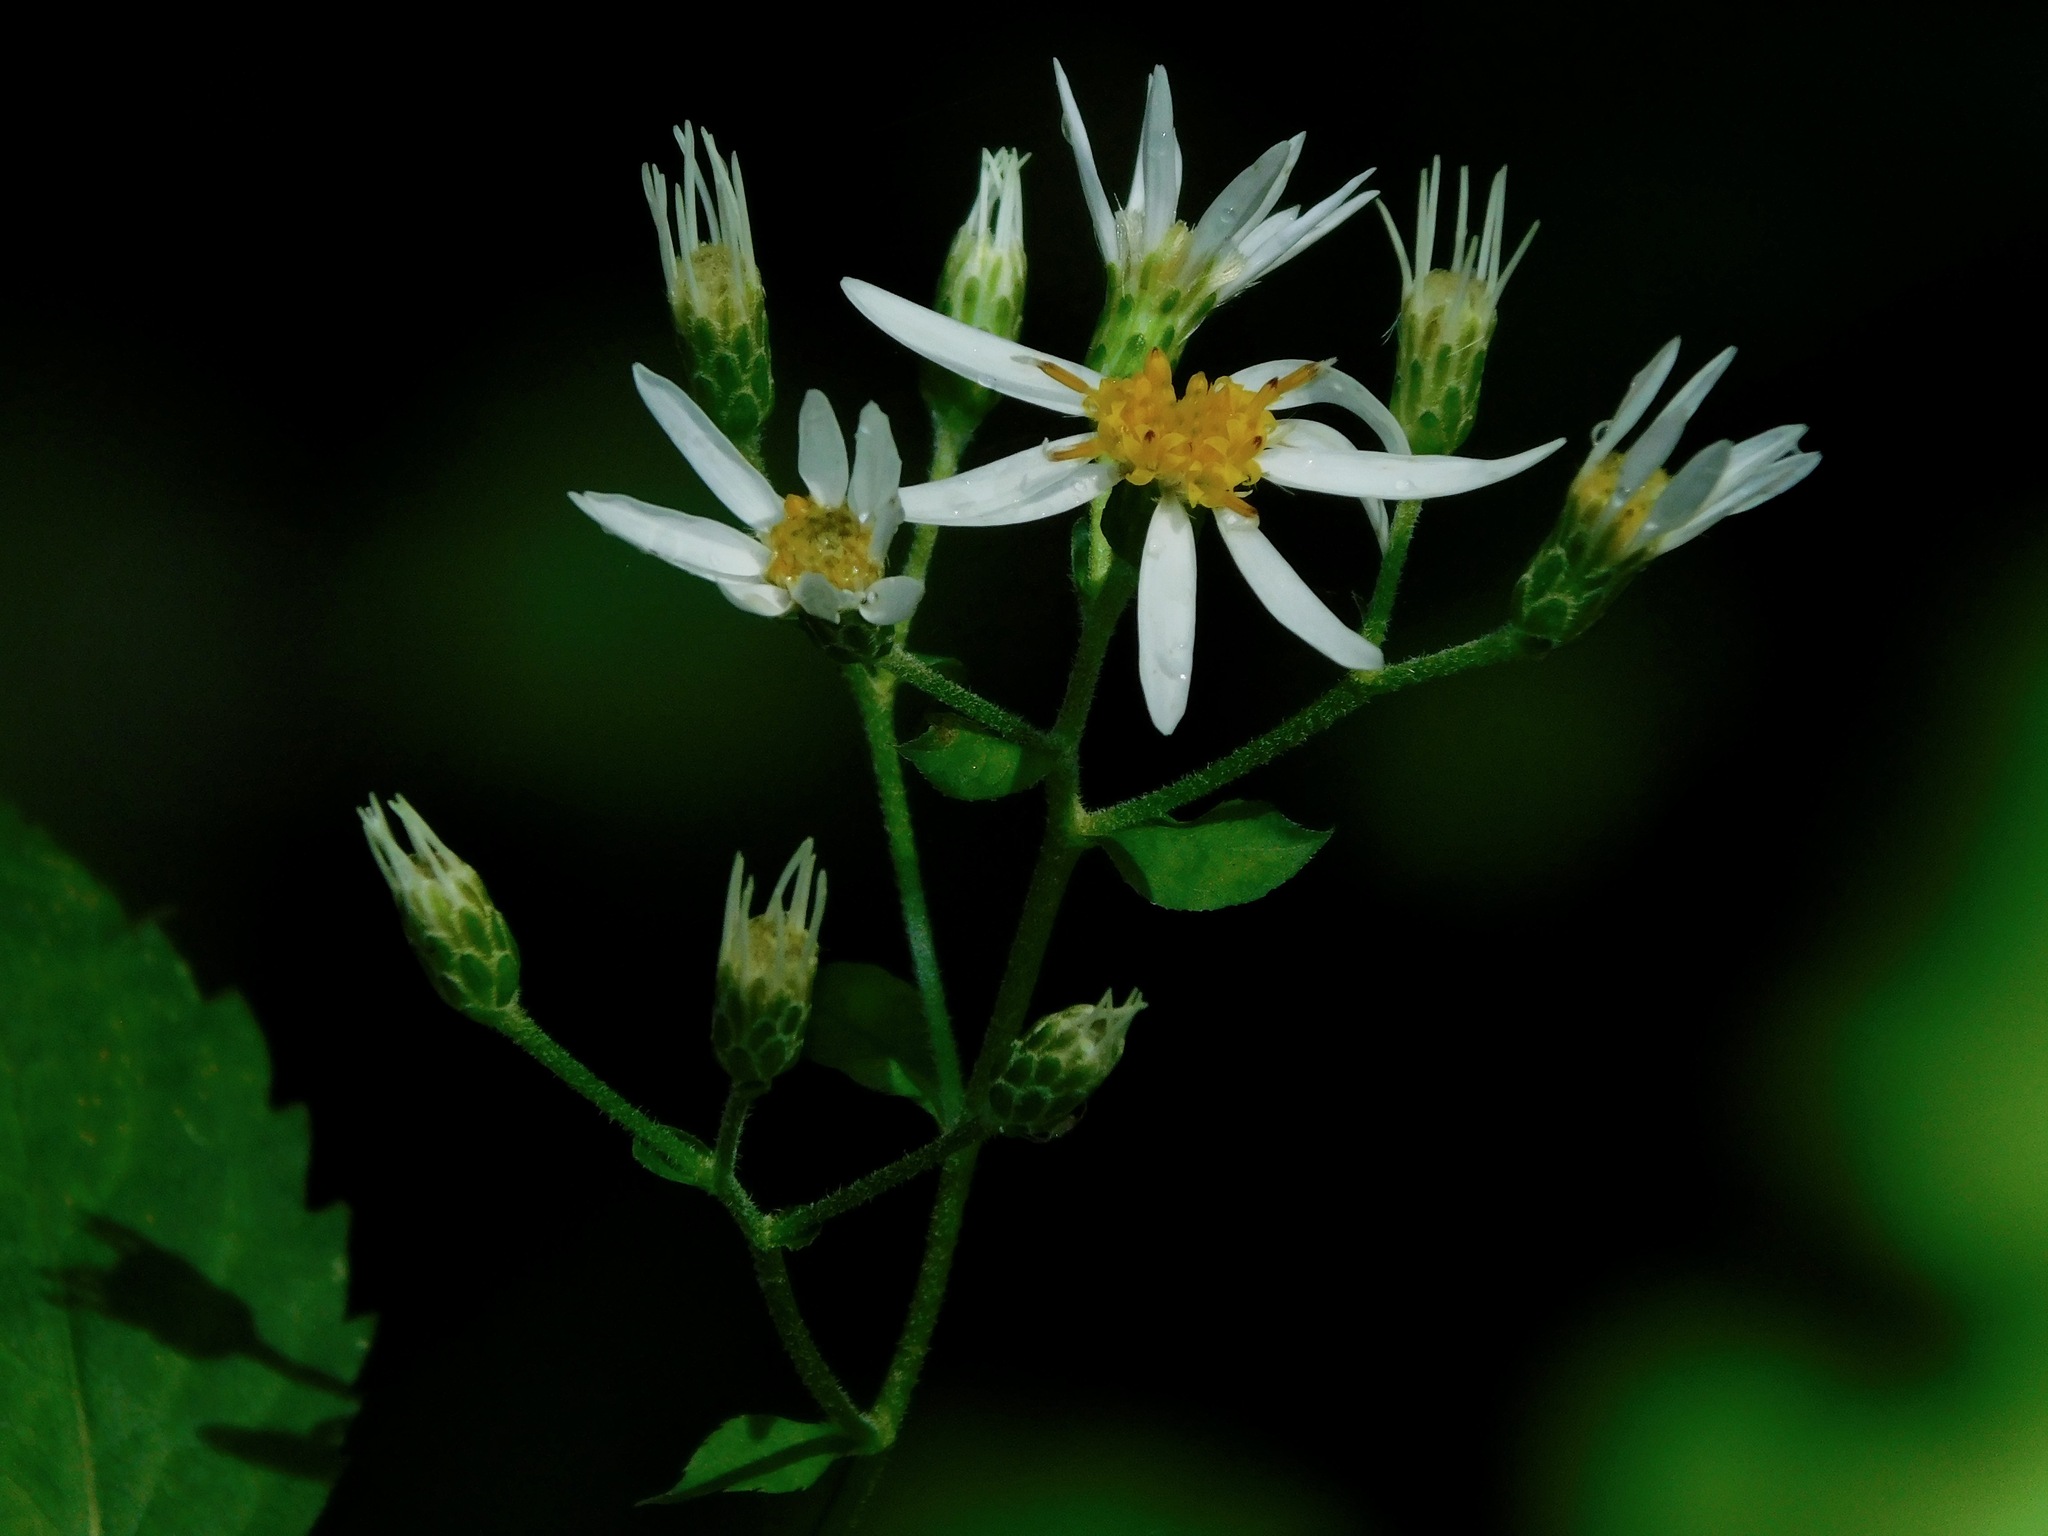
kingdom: Plantae
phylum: Tracheophyta
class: Magnoliopsida
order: Asterales
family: Asteraceae
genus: Eurybia
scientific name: Eurybia chlorolepis
